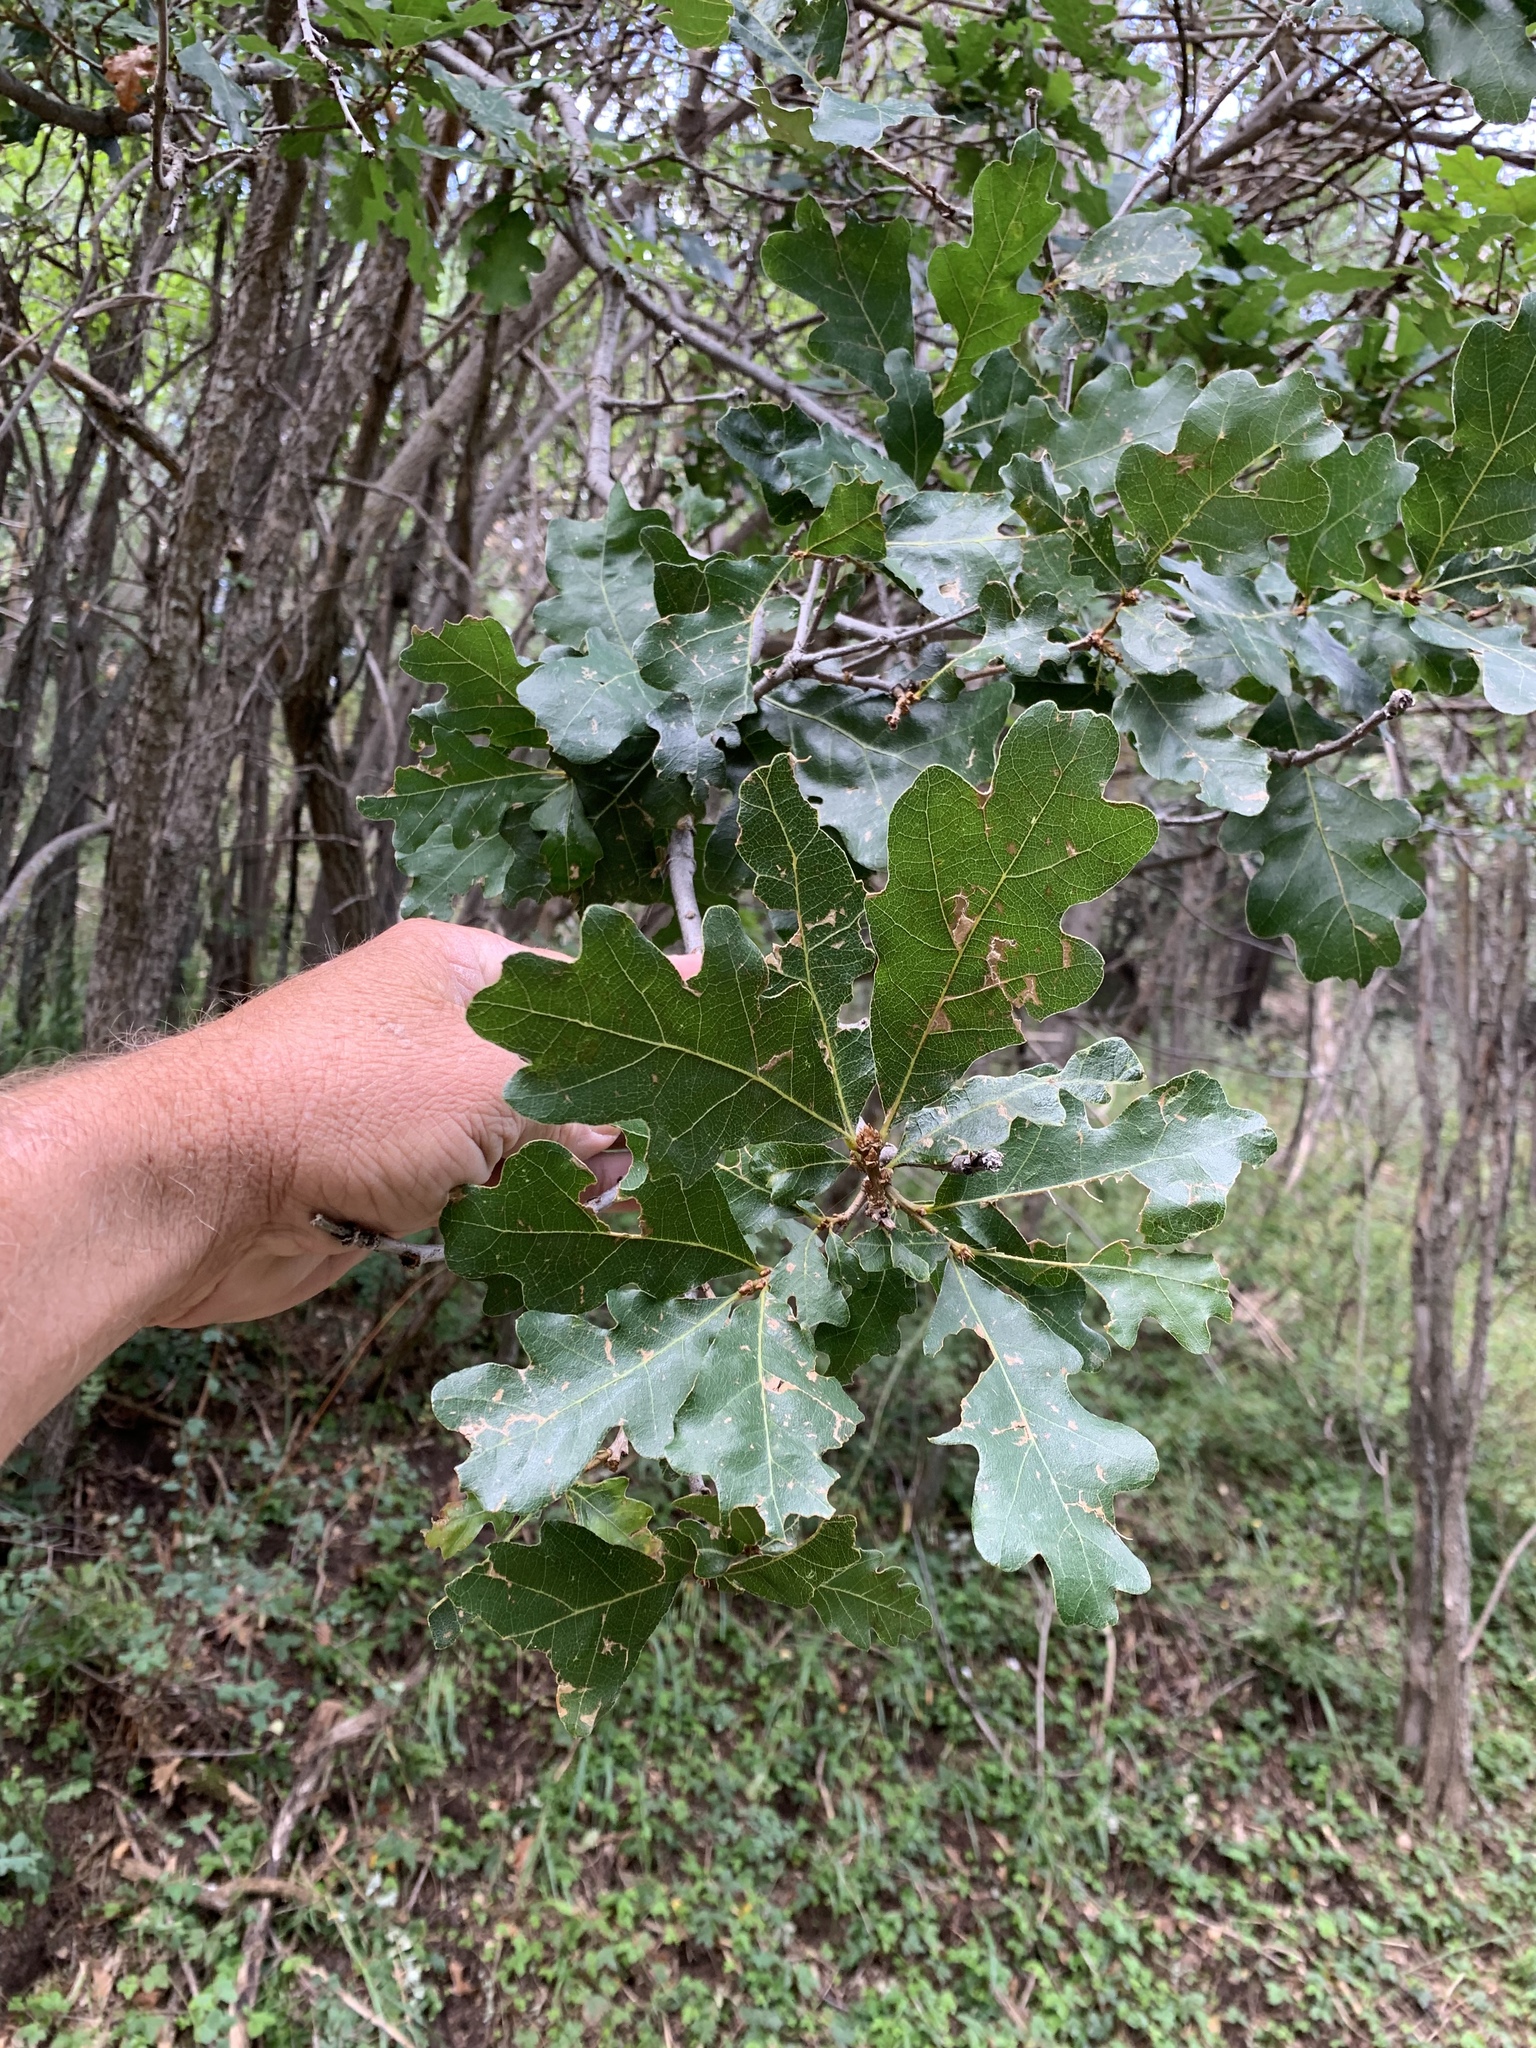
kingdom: Plantae
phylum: Tracheophyta
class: Magnoliopsida
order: Fagales
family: Fagaceae
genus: Quercus
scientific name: Quercus gambelii
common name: Gambel oak
